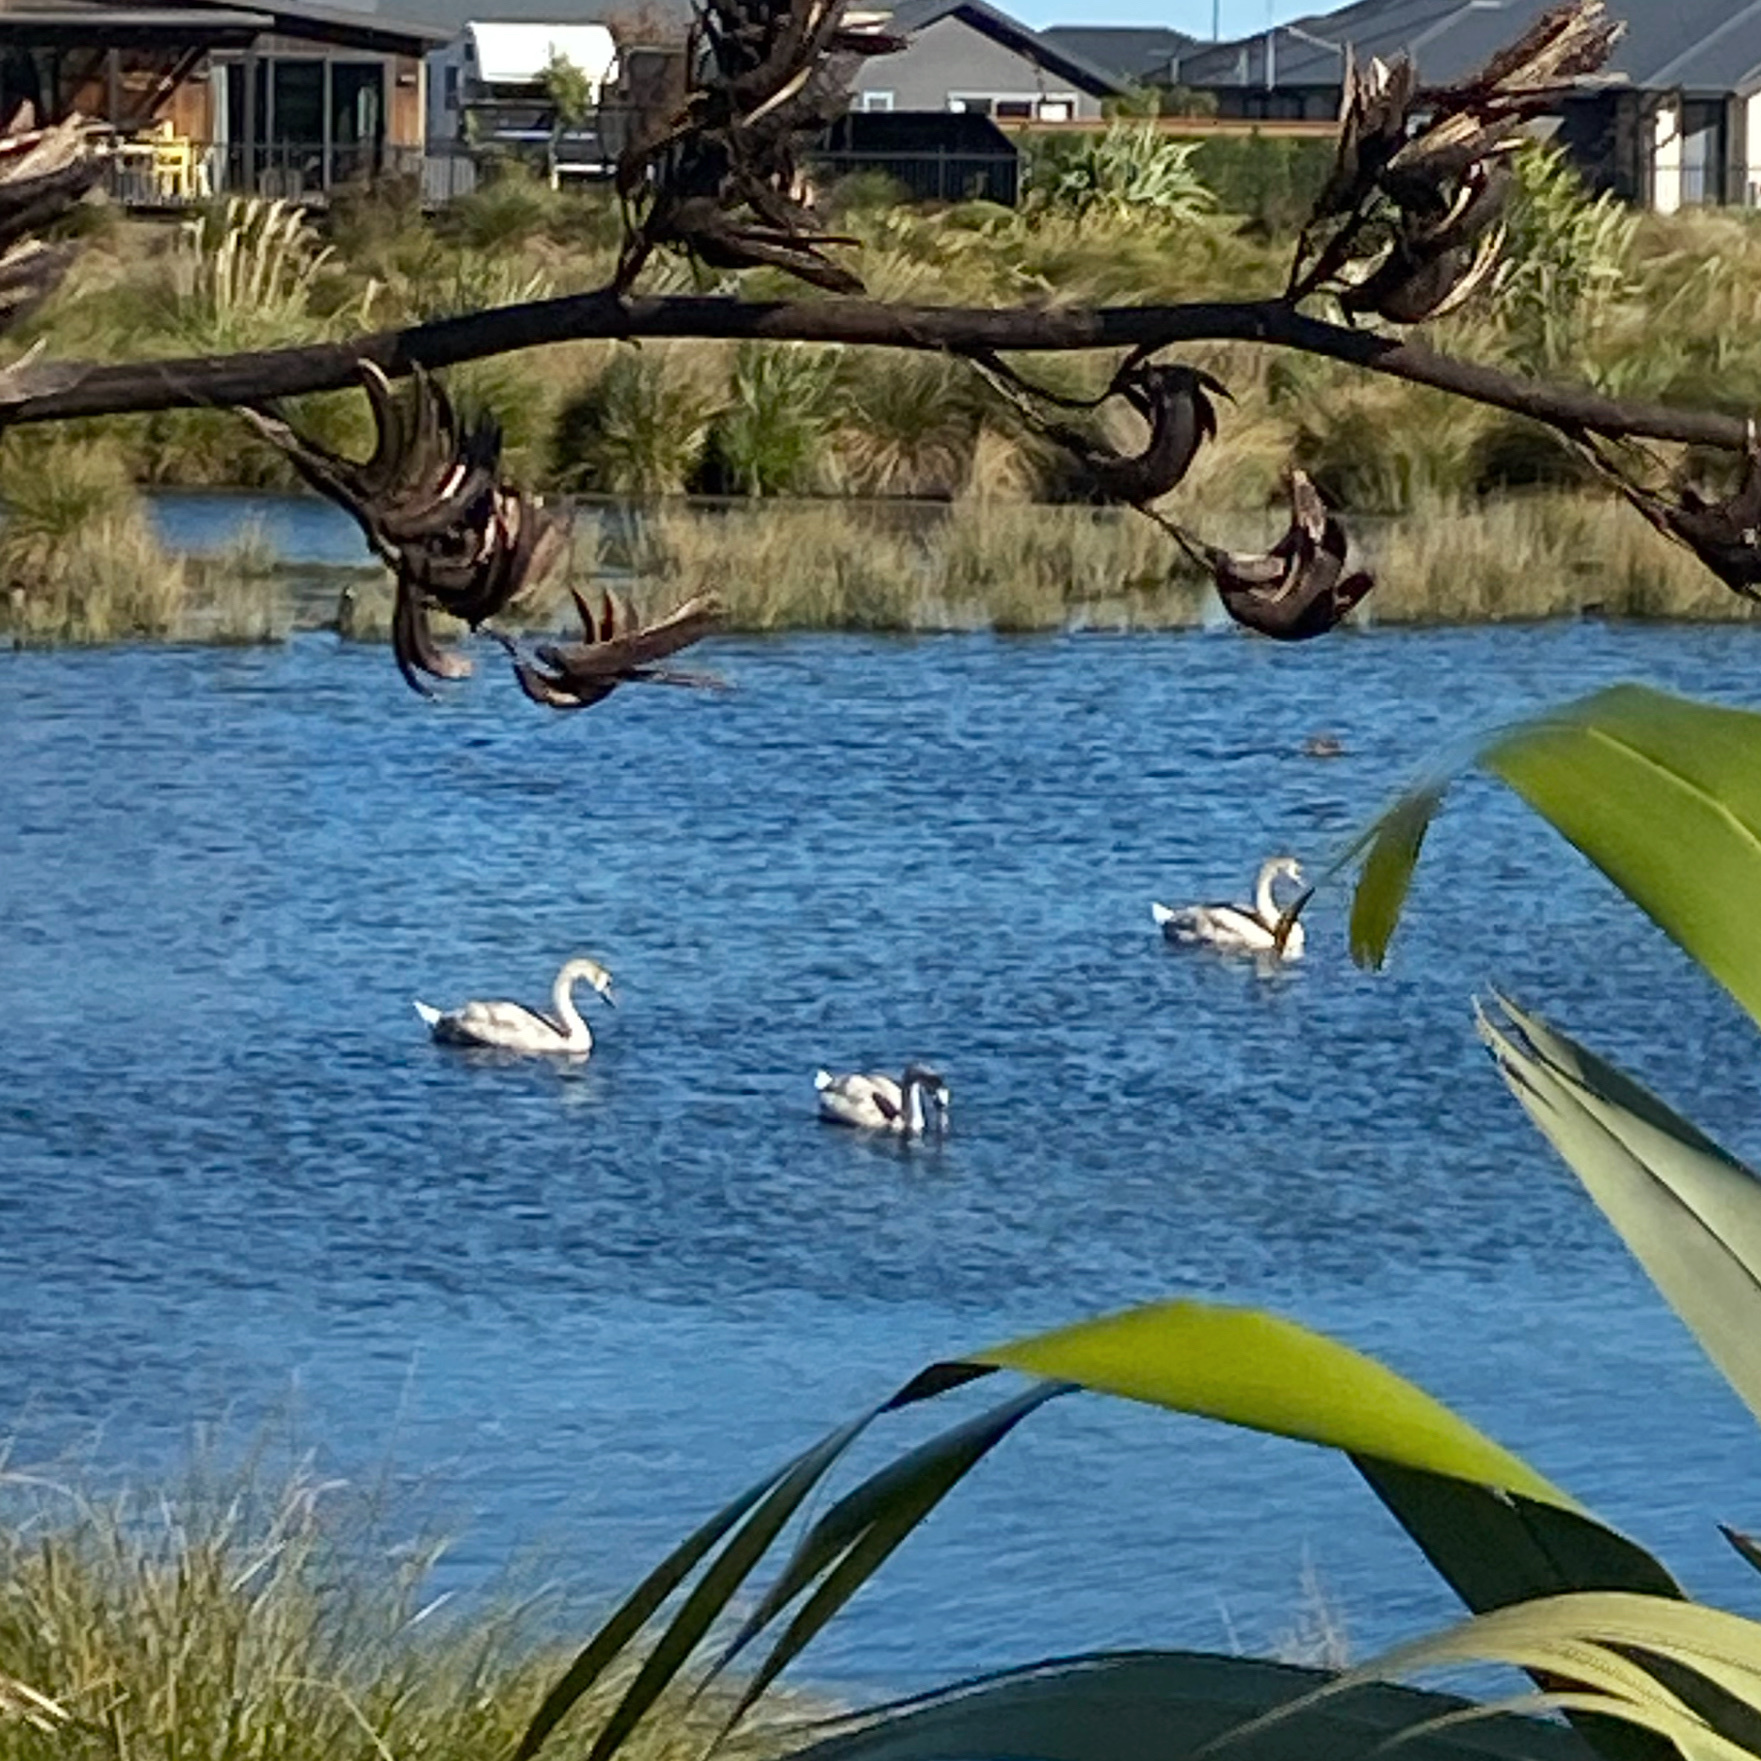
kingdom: Animalia
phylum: Chordata
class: Aves
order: Anseriformes
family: Anatidae
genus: Cygnus
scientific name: Cygnus olor
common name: Mute swan
